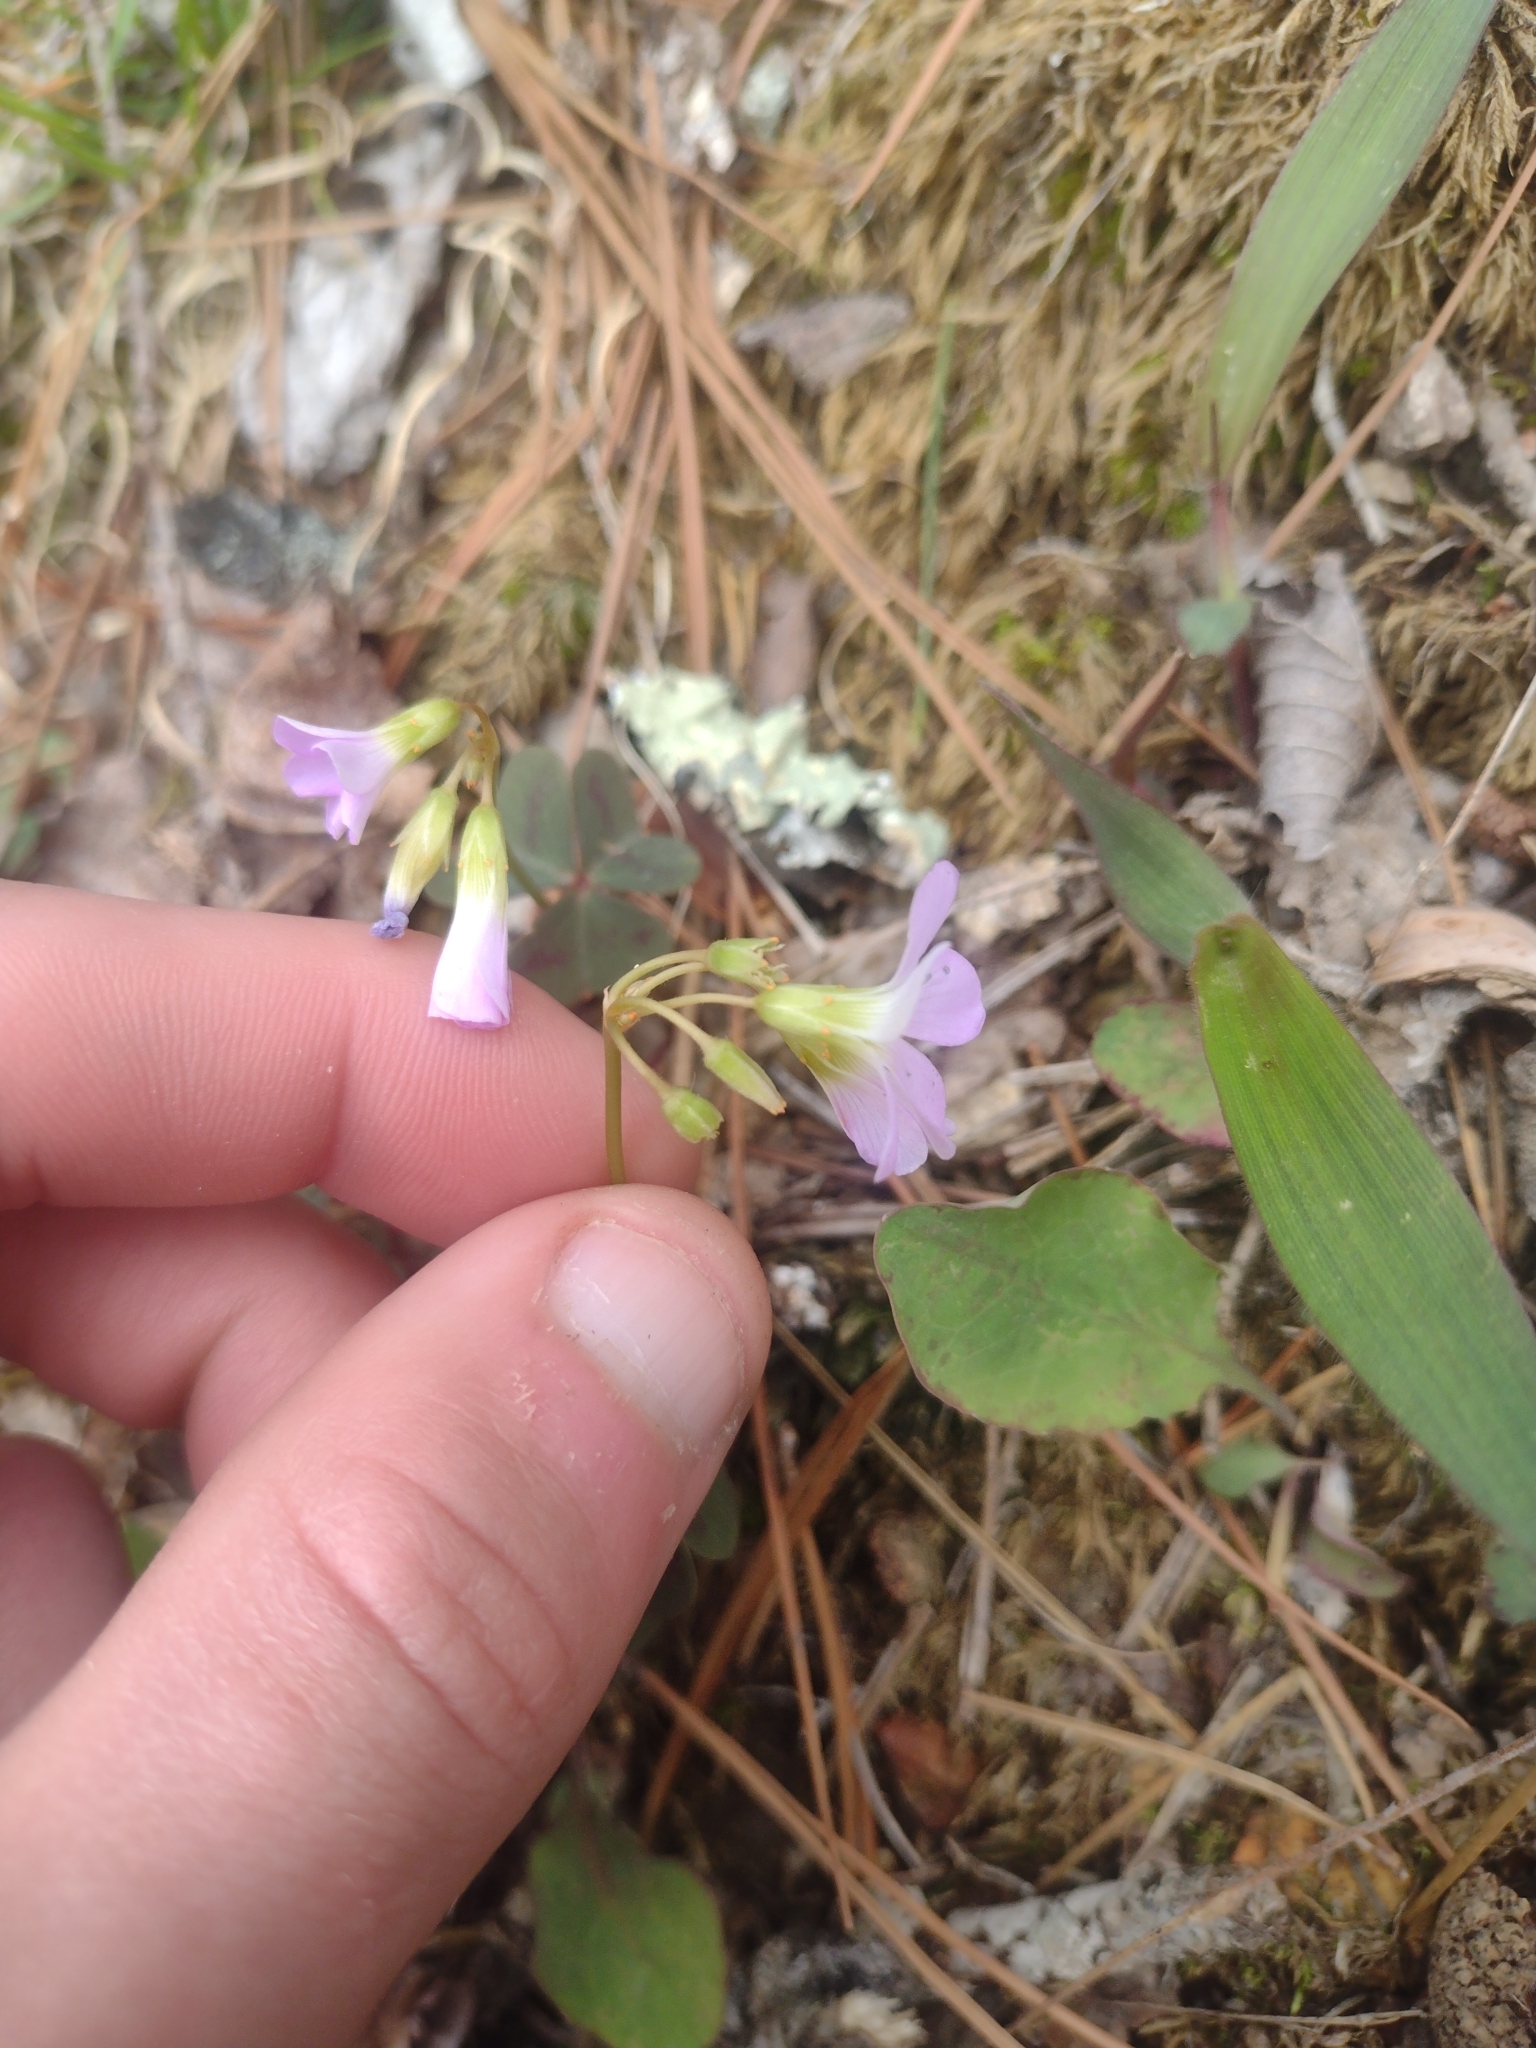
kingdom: Plantae
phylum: Tracheophyta
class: Magnoliopsida
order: Oxalidales
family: Oxalidaceae
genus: Oxalis
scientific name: Oxalis violacea
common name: Violet wood-sorrel
